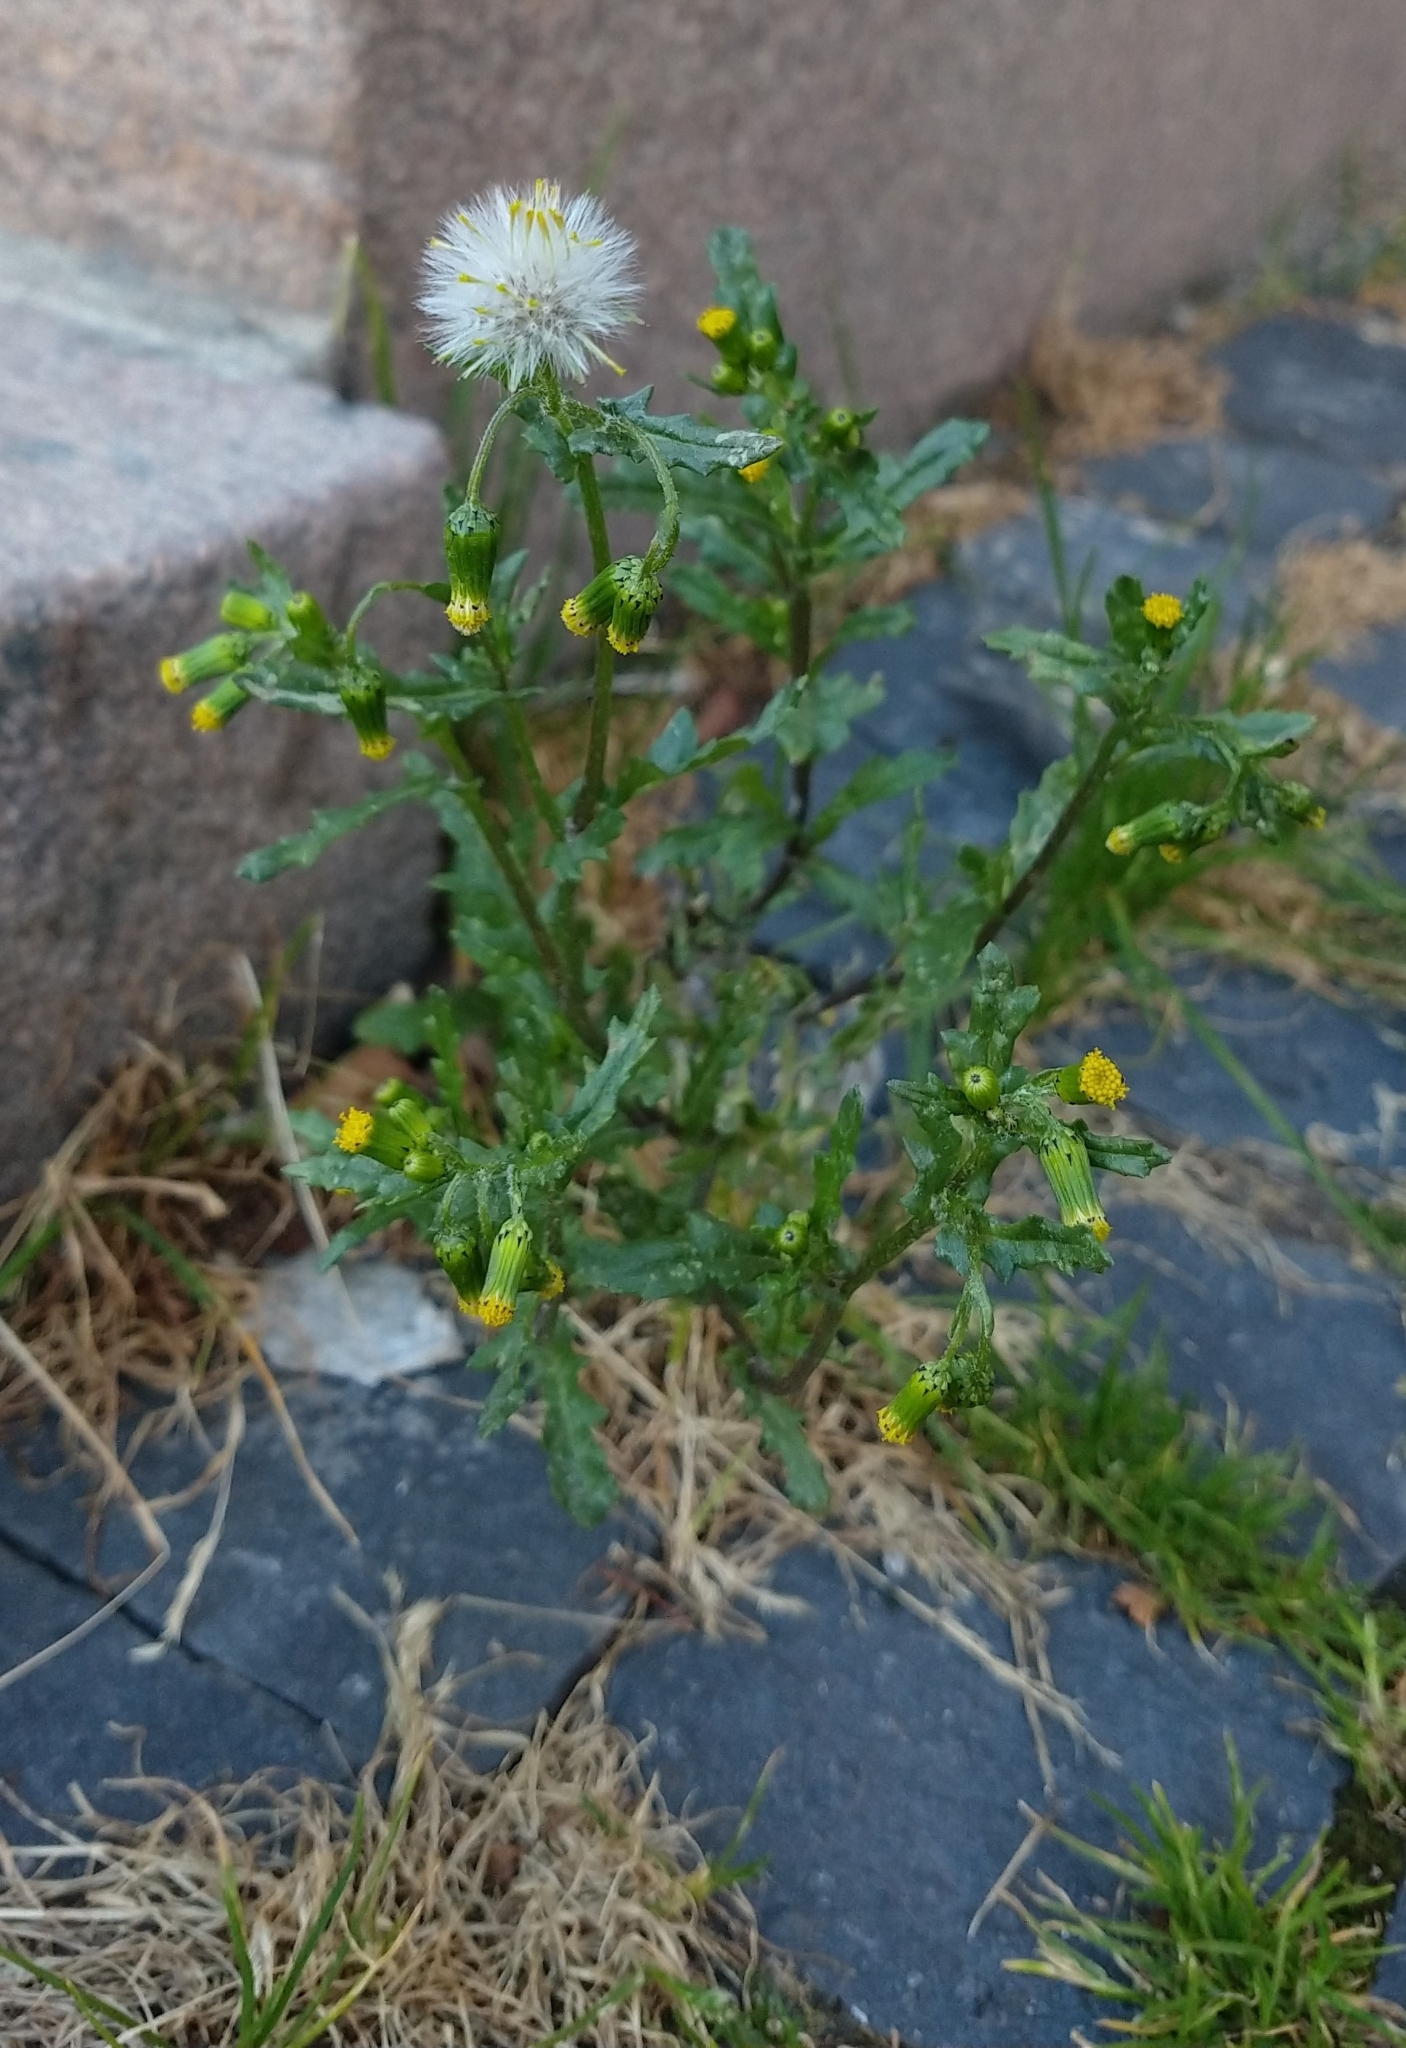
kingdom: Plantae
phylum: Tracheophyta
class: Magnoliopsida
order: Asterales
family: Asteraceae
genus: Senecio
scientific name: Senecio vulgaris
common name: Old-man-in-the-spring
